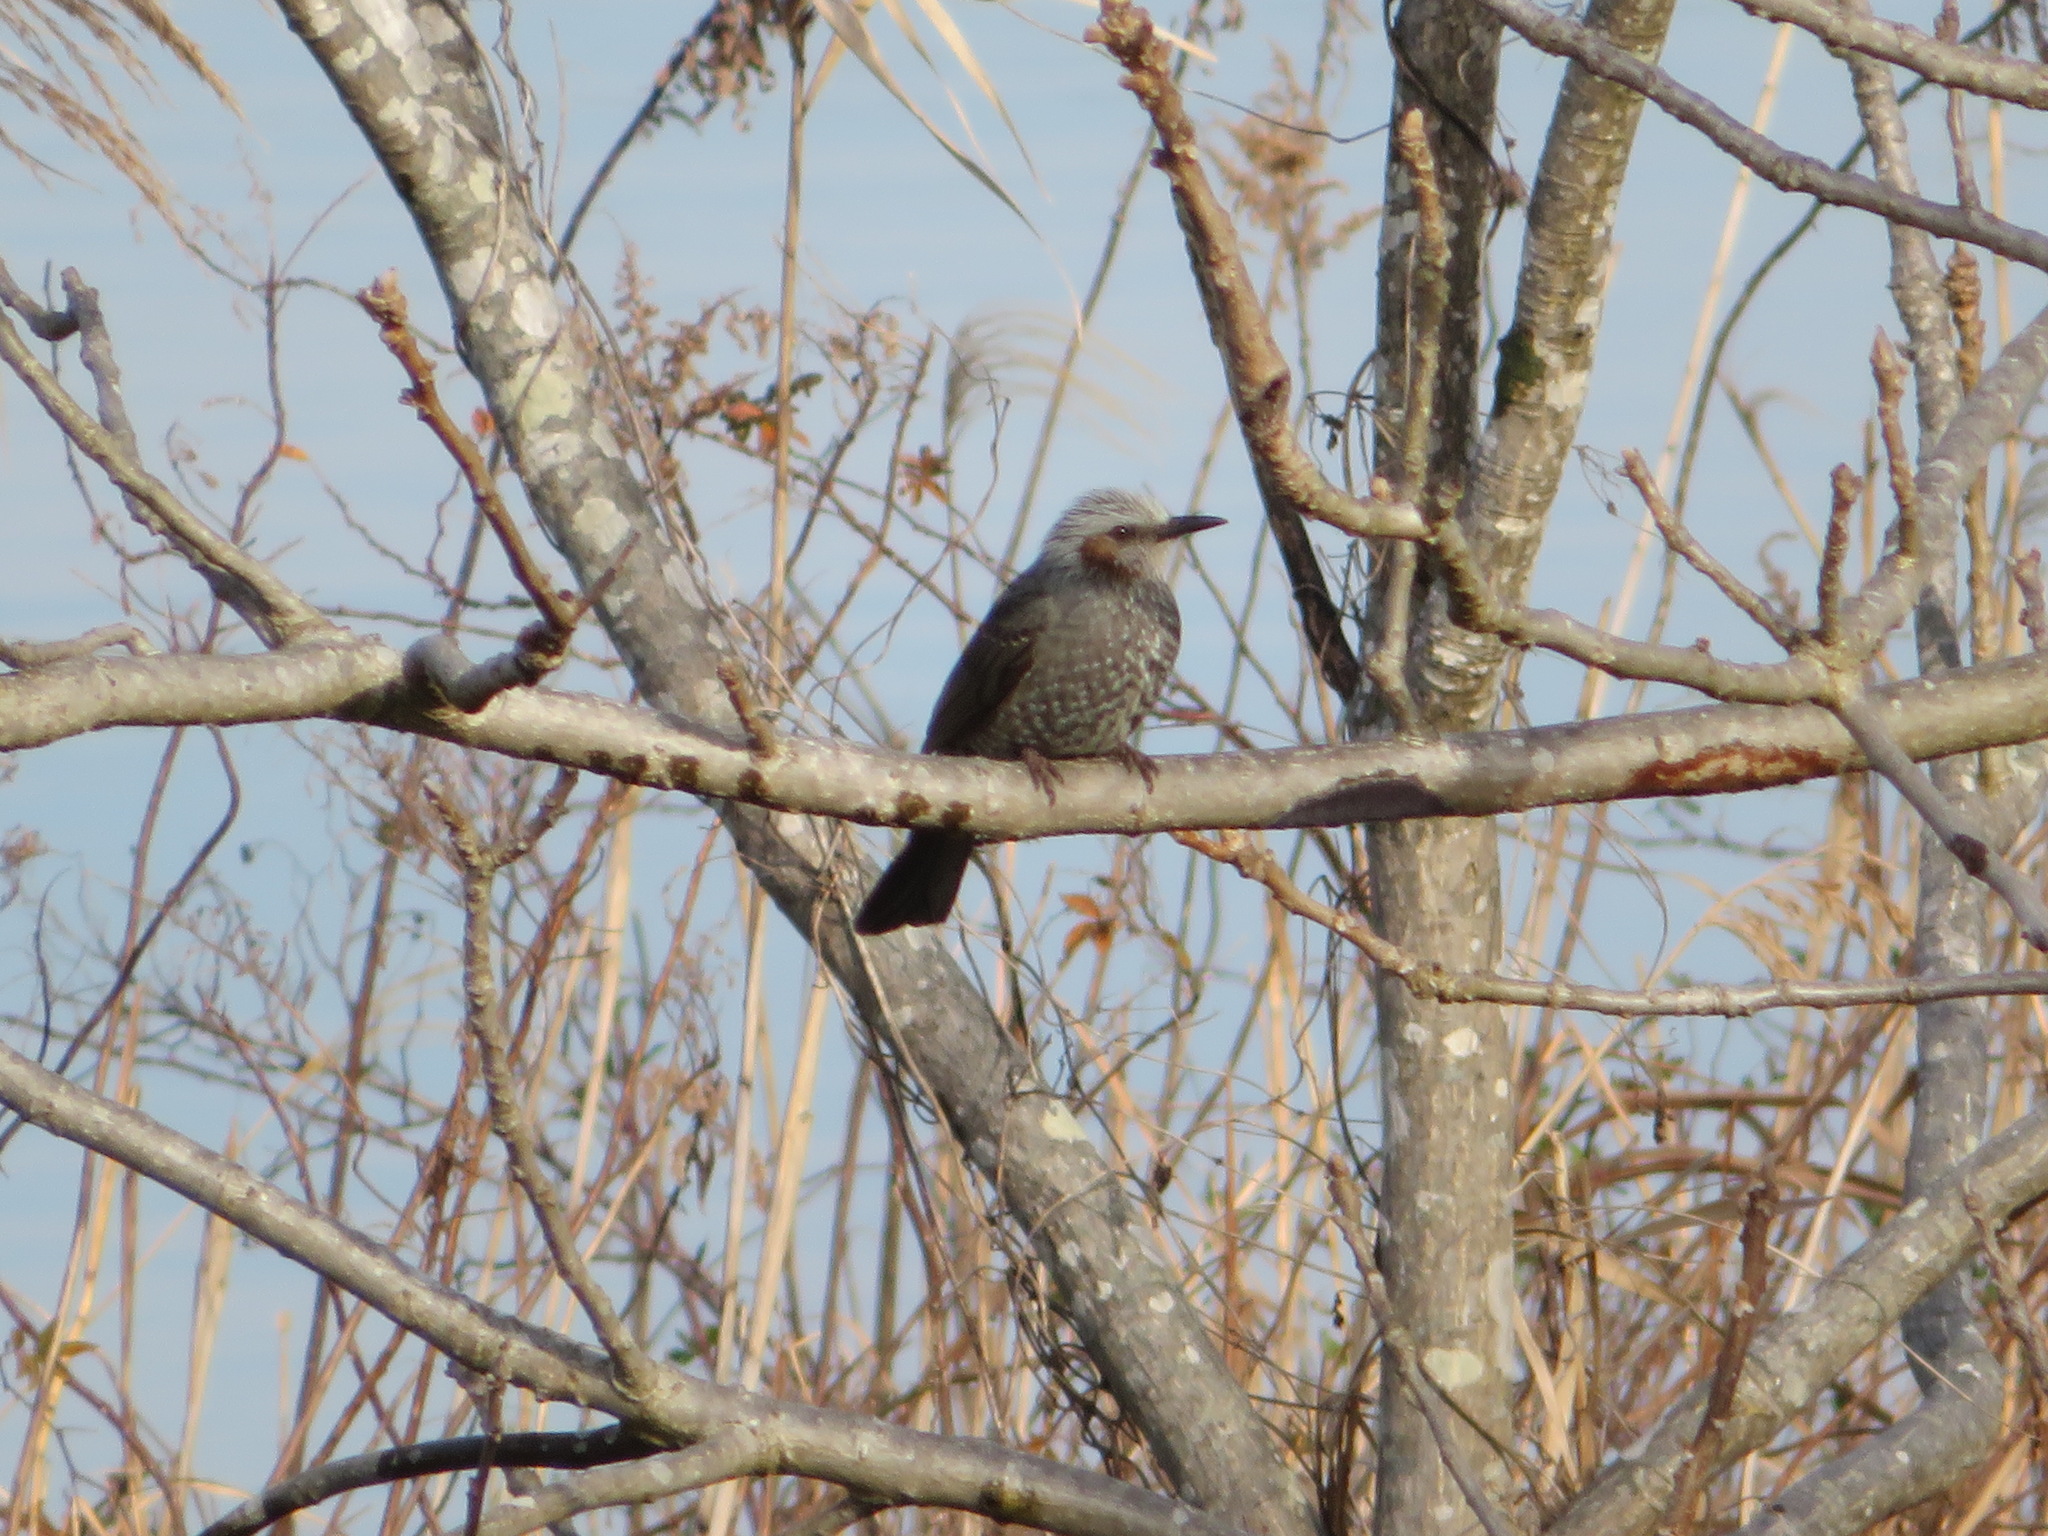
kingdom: Animalia
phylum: Chordata
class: Aves
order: Passeriformes
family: Pycnonotidae
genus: Hypsipetes
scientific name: Hypsipetes amaurotis
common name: Brown-eared bulbul
